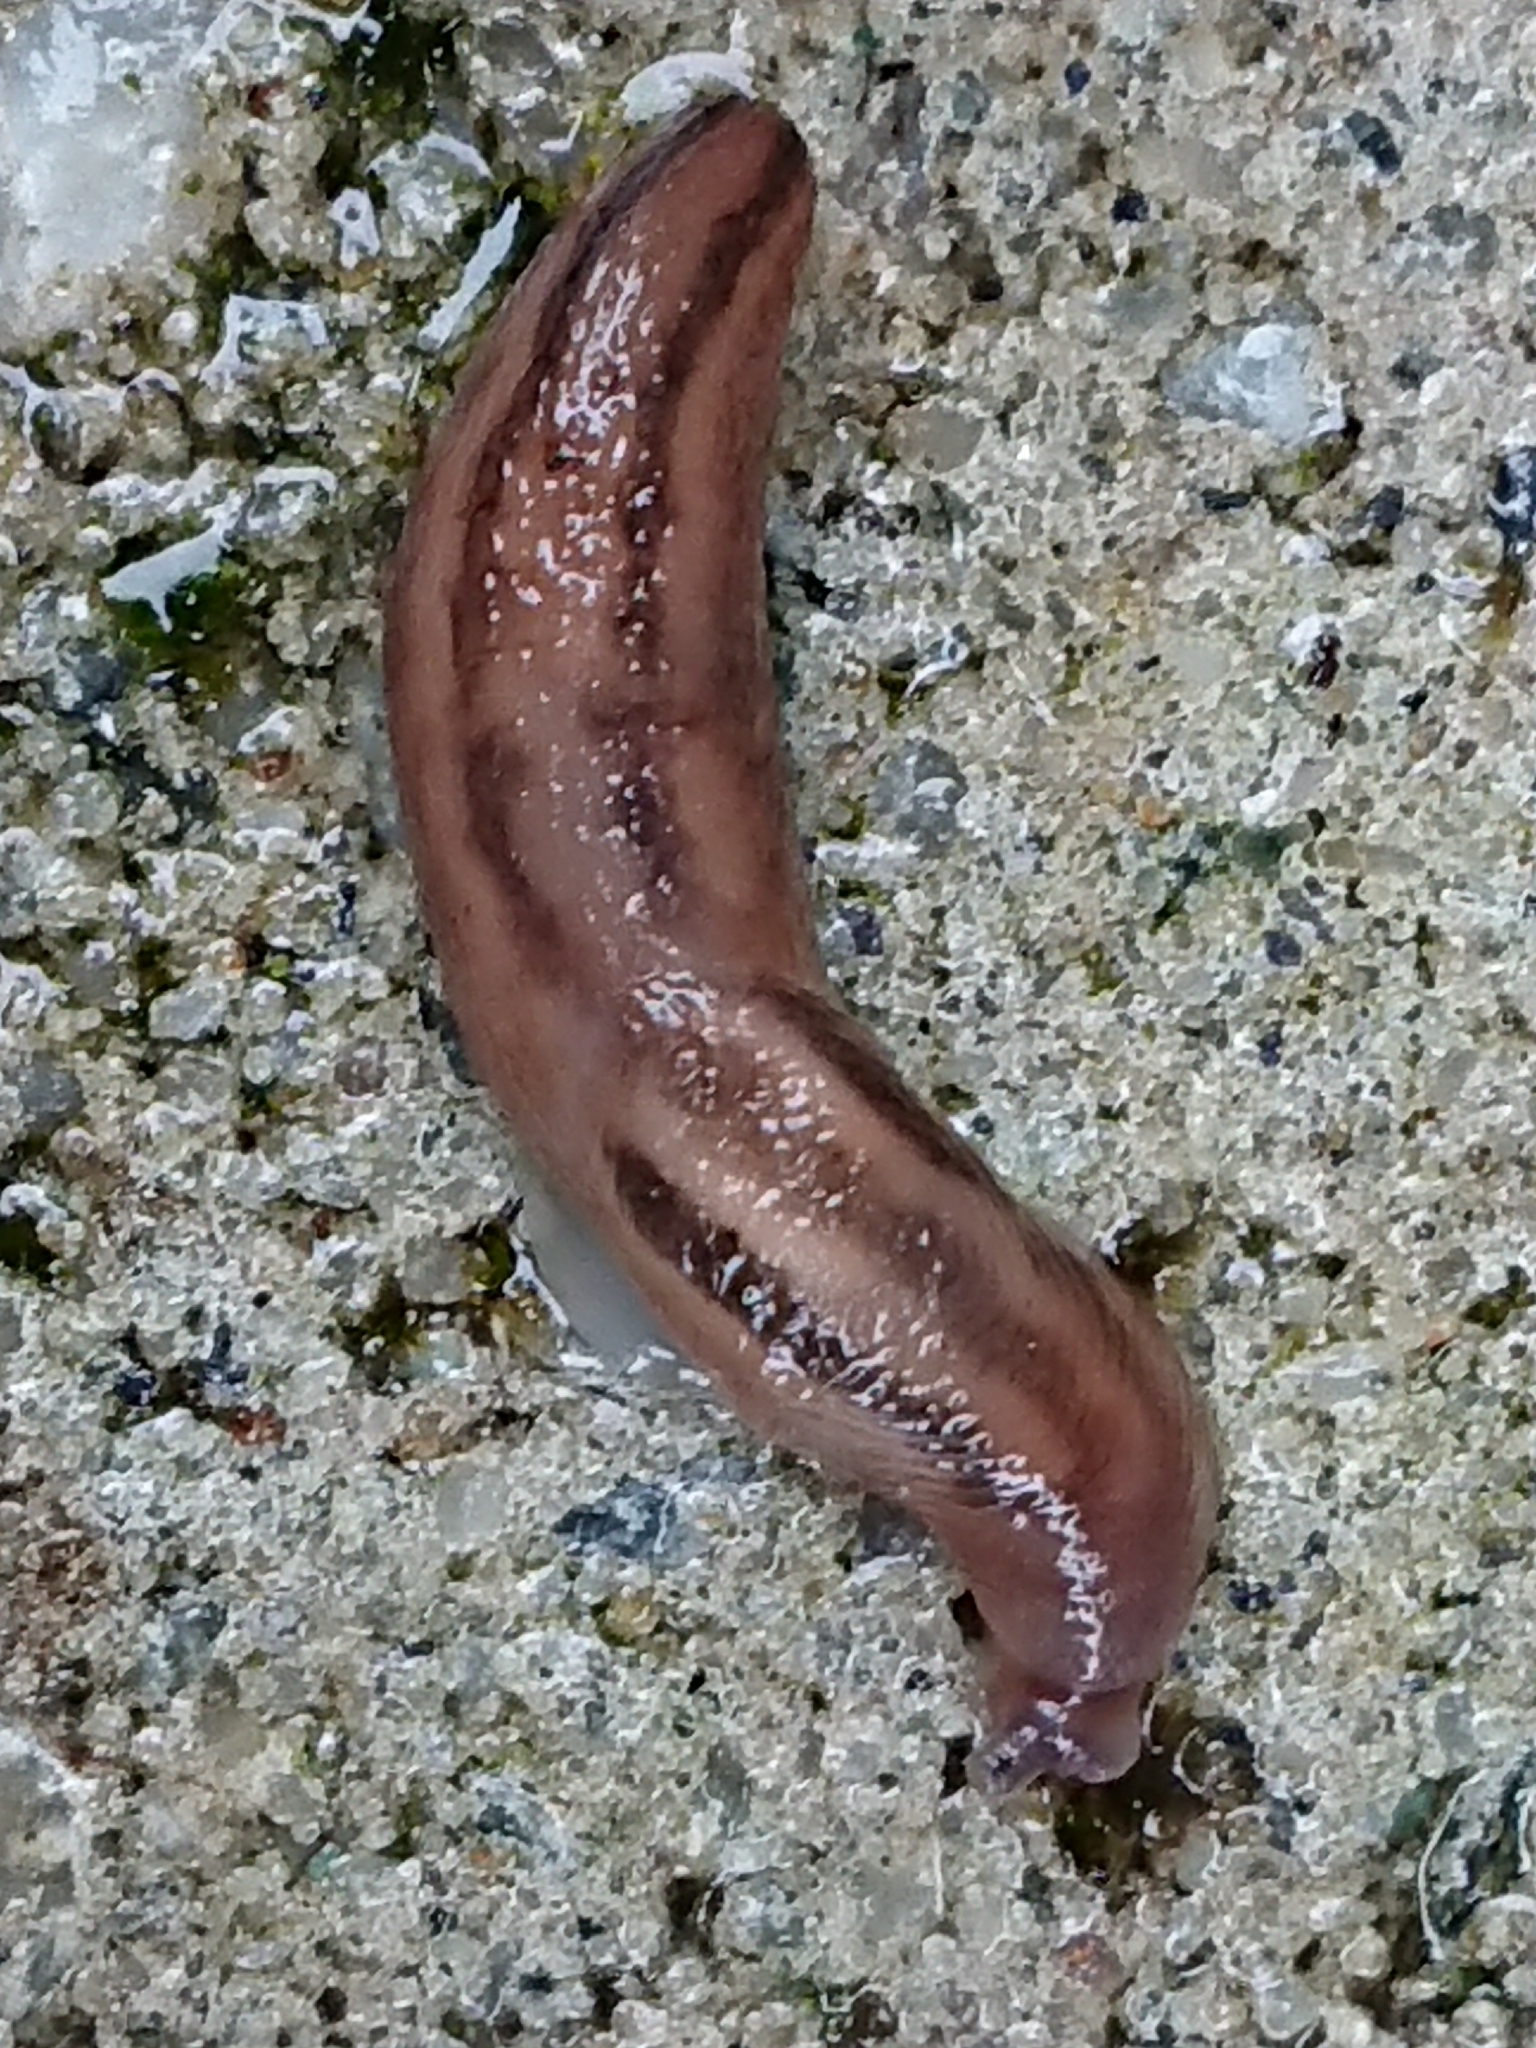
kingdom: Animalia
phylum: Mollusca
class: Gastropoda
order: Stylommatophora
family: Limacidae
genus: Ambigolimax
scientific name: Ambigolimax
